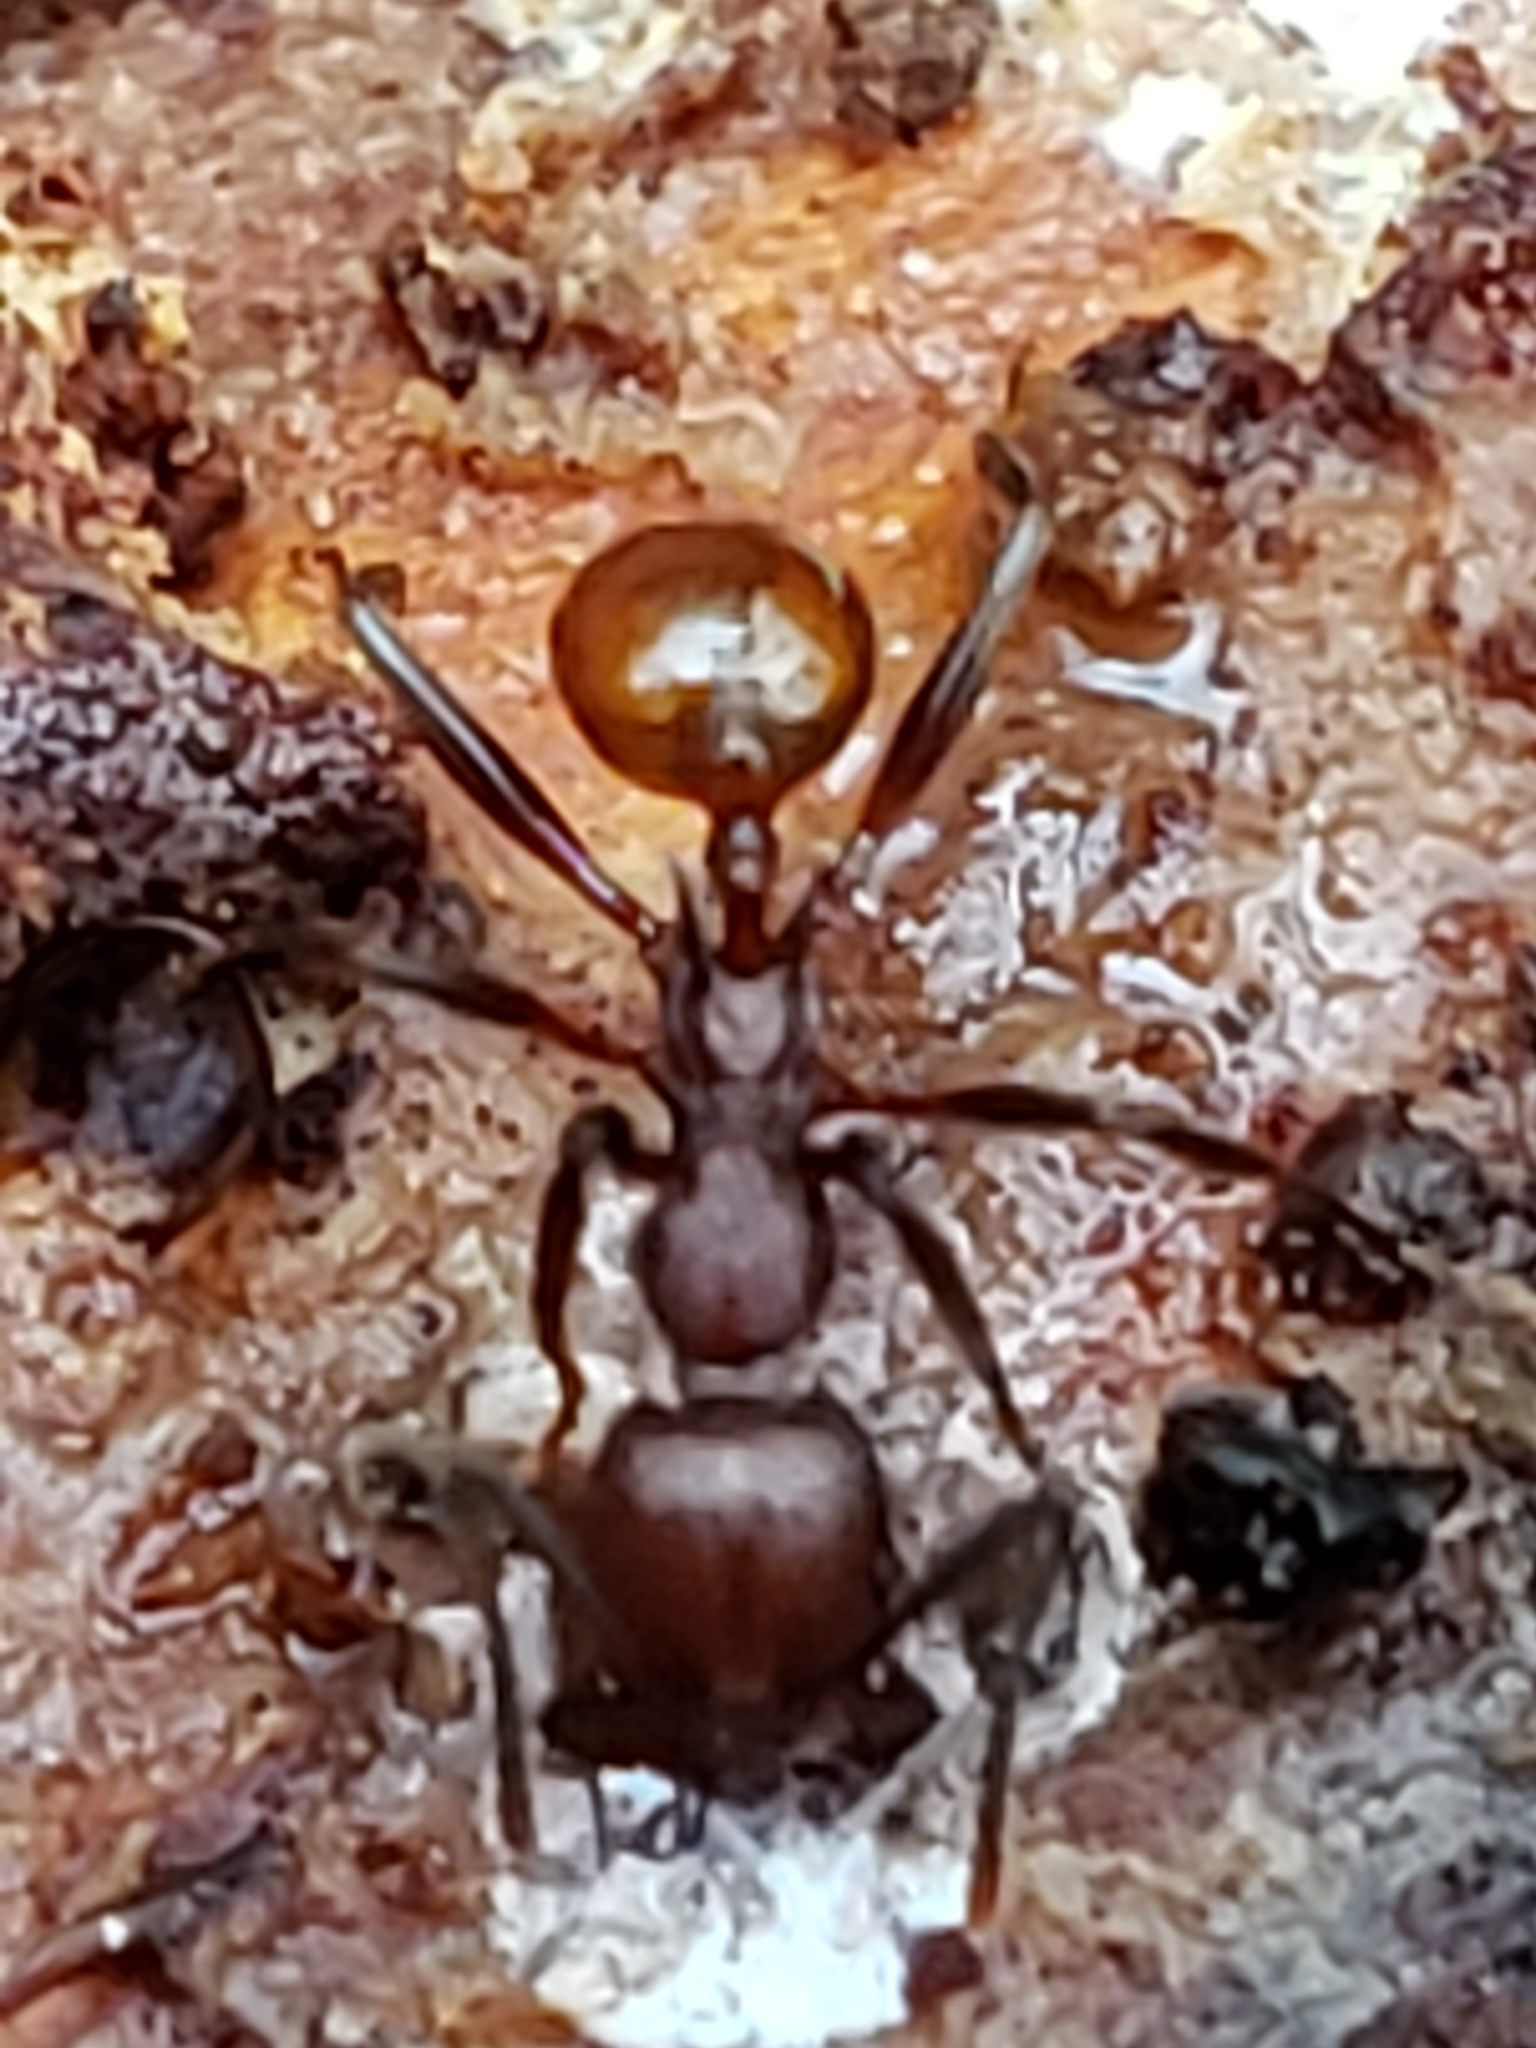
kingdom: Animalia
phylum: Arthropoda
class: Insecta
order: Hymenoptera
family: Formicidae
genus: Aphaenogaster
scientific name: Aphaenogaster tennesseensis
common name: Tennessee thread-waisted ant
